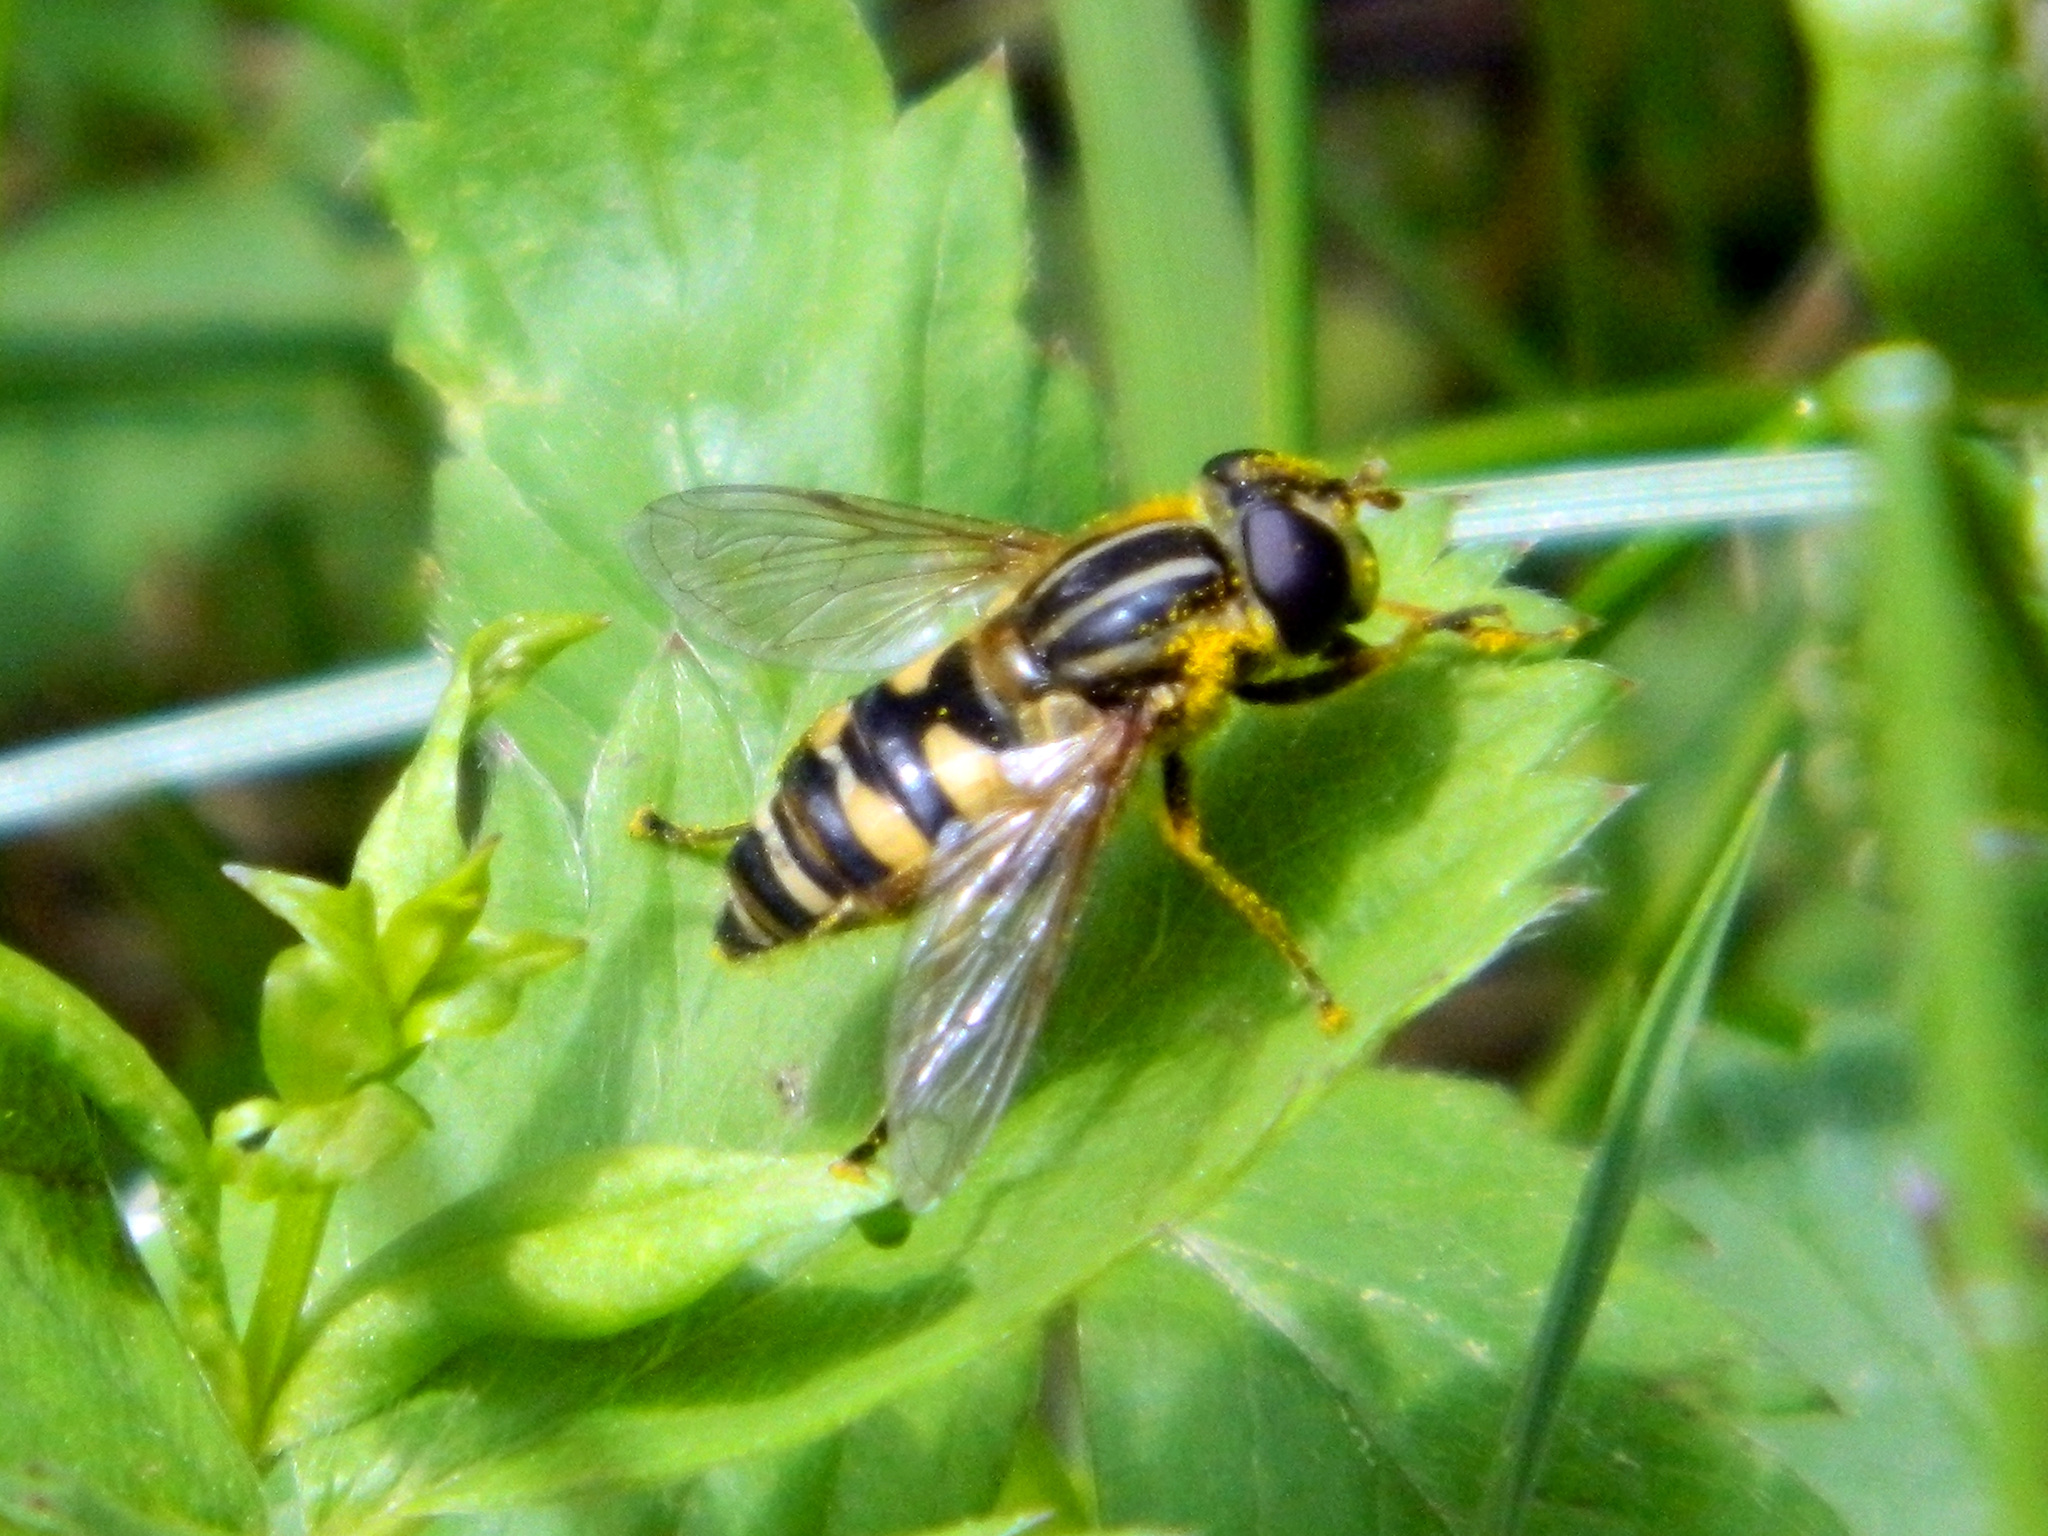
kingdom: Animalia
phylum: Arthropoda
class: Insecta
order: Diptera
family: Syrphidae
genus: Helophilus
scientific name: Helophilus fasciatus
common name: Narrow-headed marsh fly
